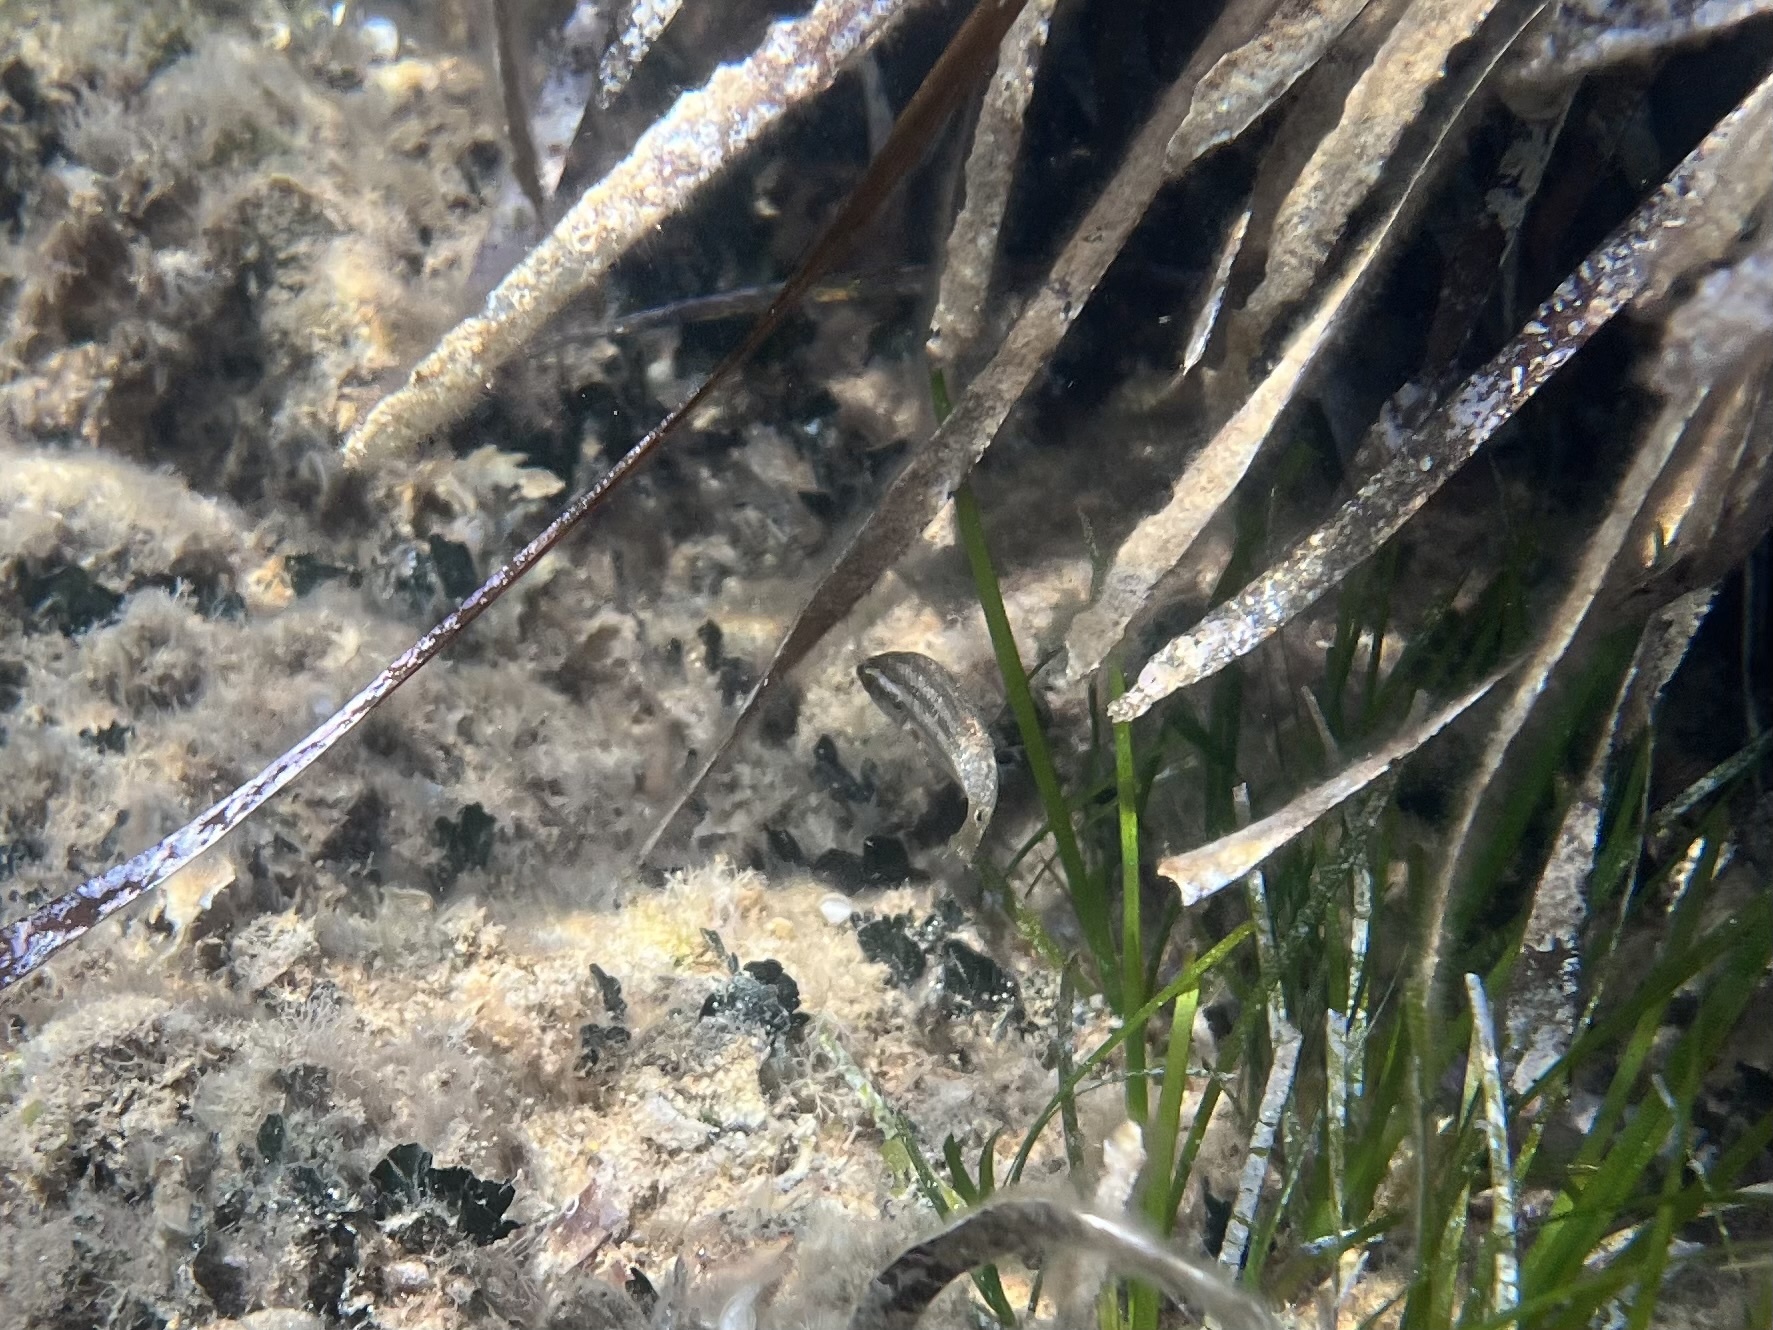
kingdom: Animalia
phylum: Chordata
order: Perciformes
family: Labridae
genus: Symphodus
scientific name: Symphodus
